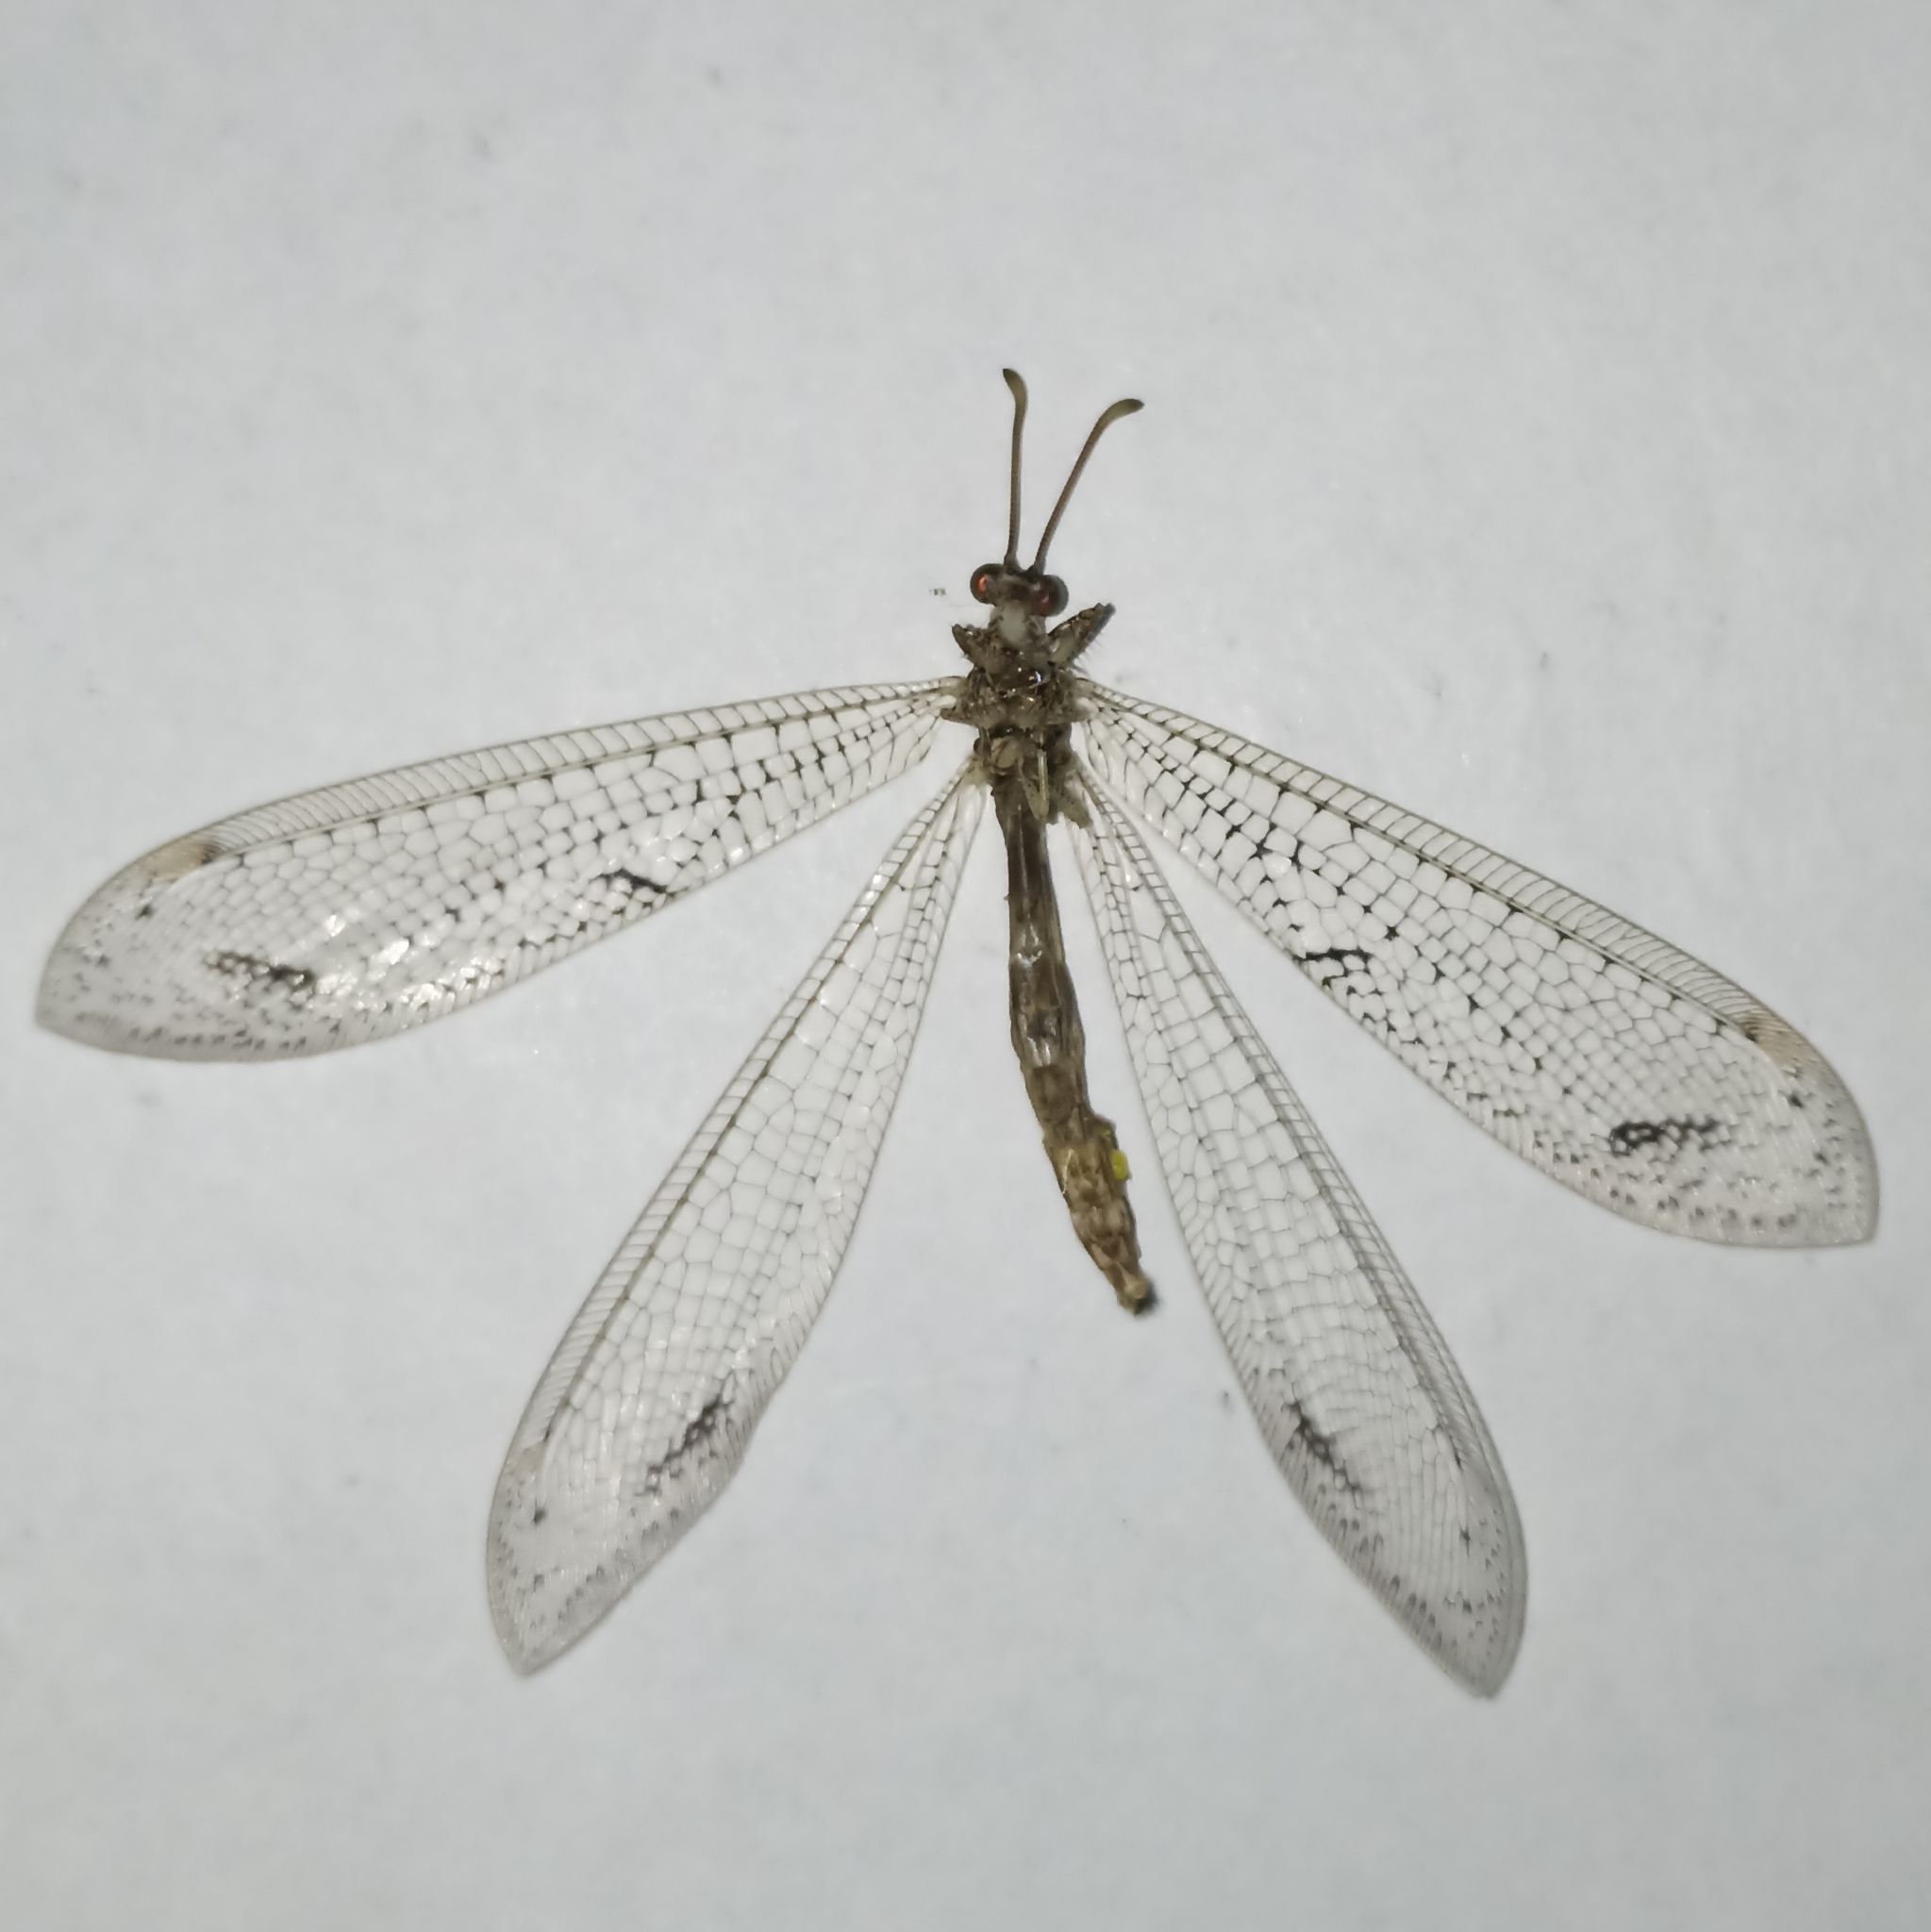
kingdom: Animalia
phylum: Arthropoda
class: Insecta
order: Neuroptera
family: Myrmeleontidae
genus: Purenleon
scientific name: Purenleon iniquus
